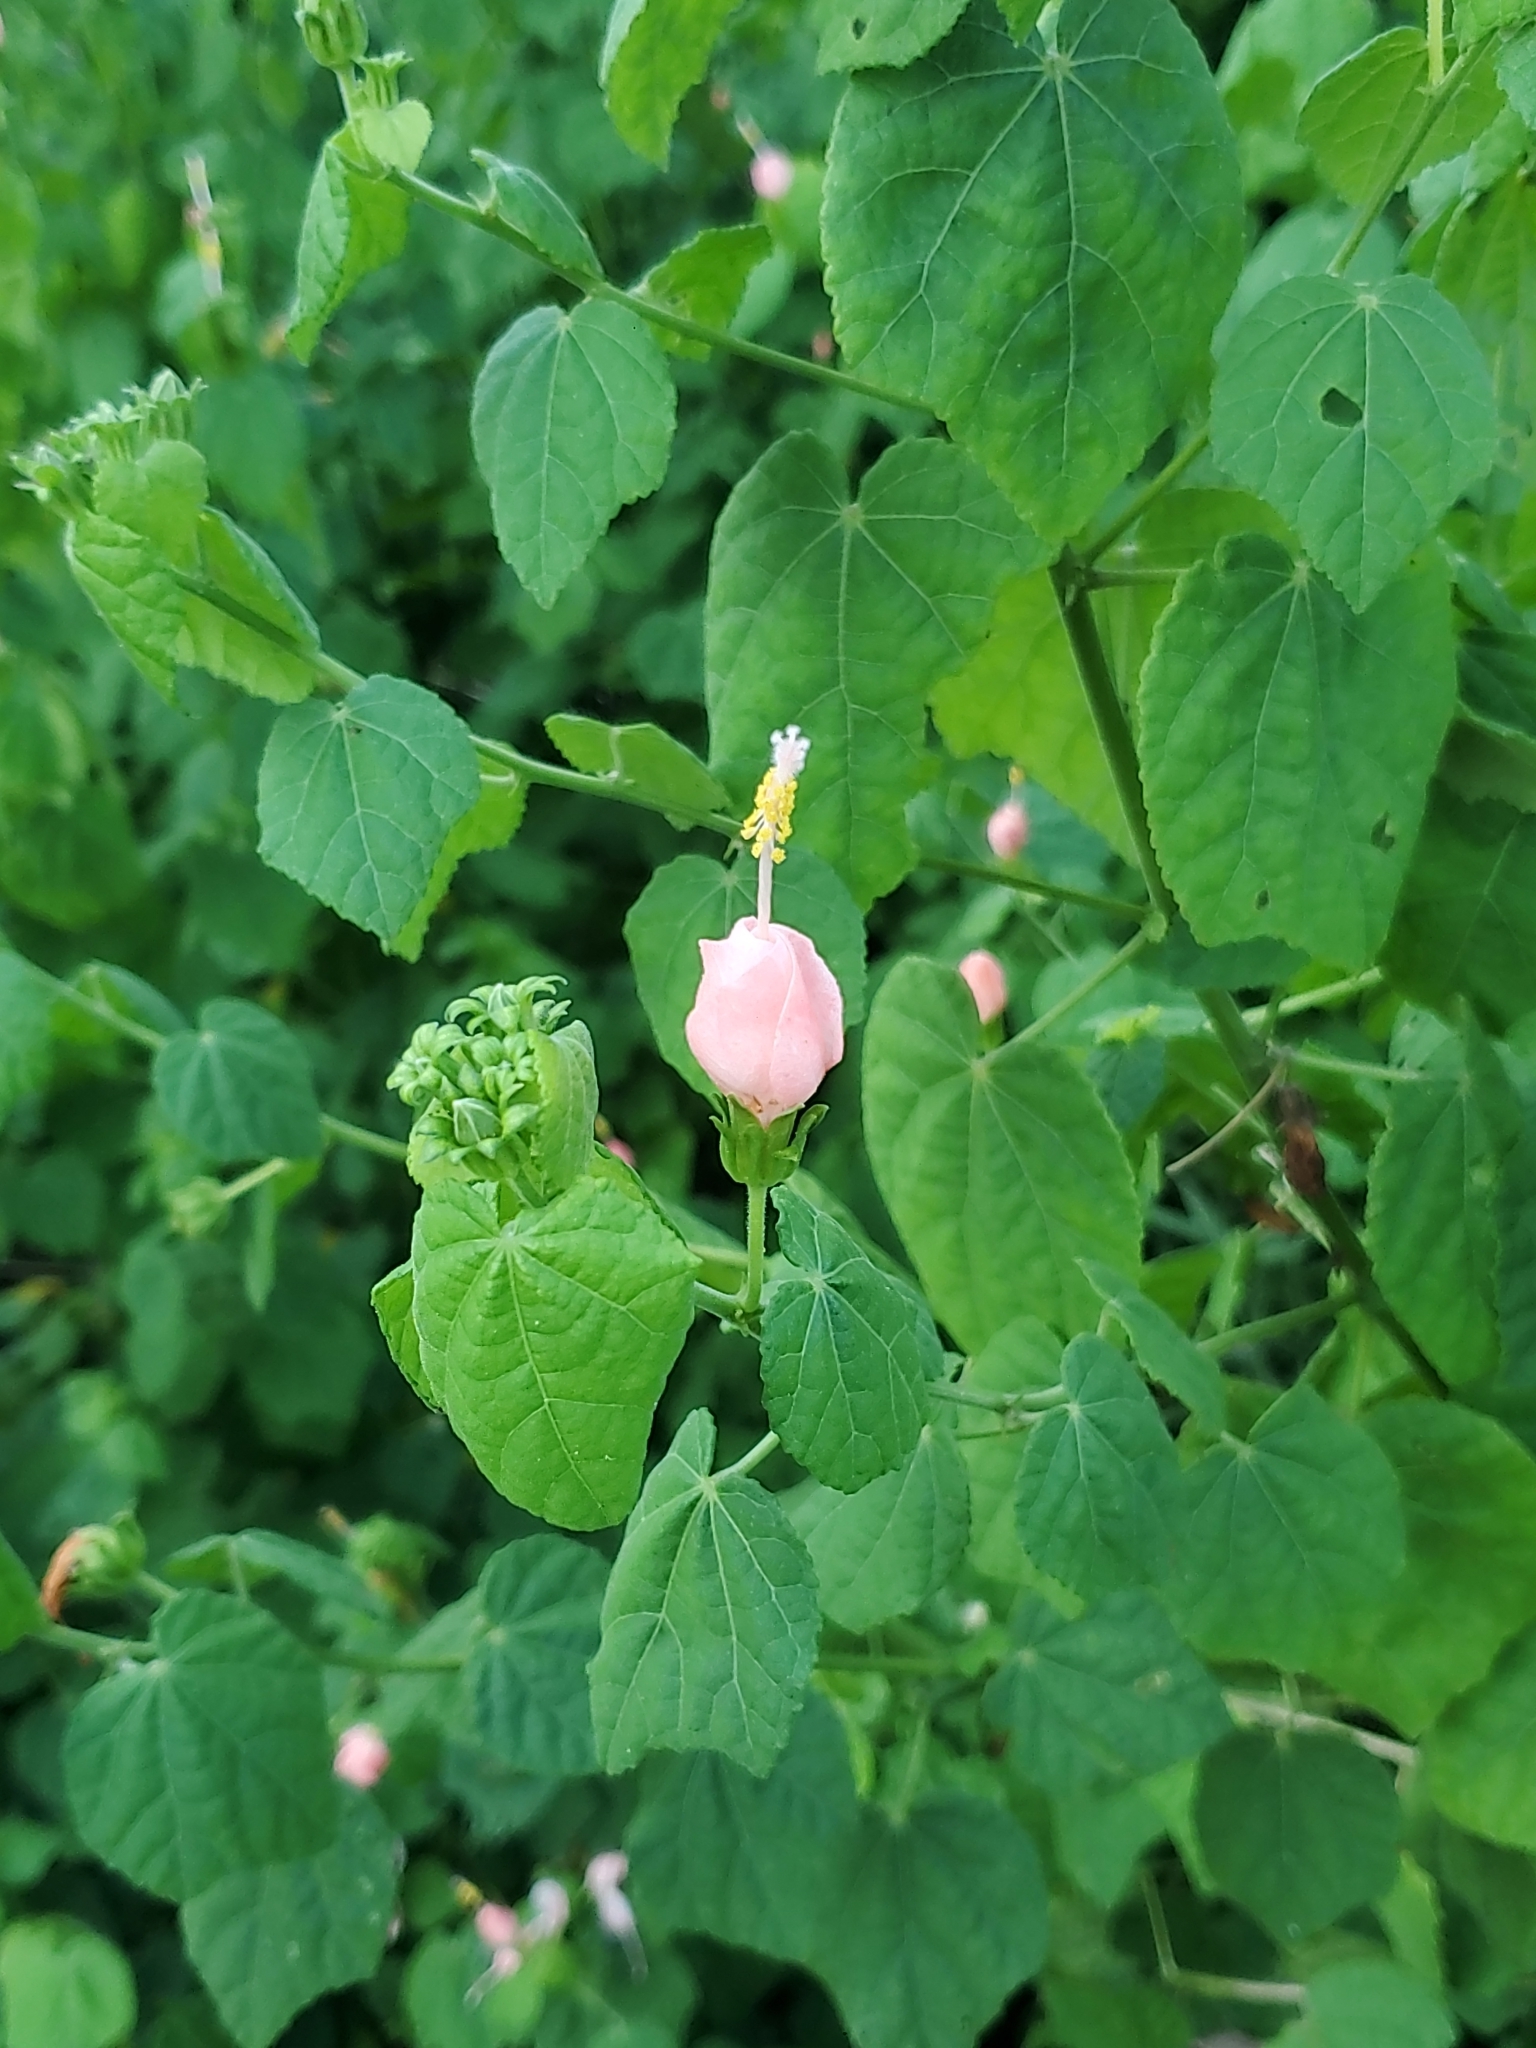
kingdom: Plantae
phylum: Tracheophyta
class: Magnoliopsida
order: Malvales
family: Malvaceae
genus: Malvaviscus
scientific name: Malvaviscus arboreus
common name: Wax mallow
